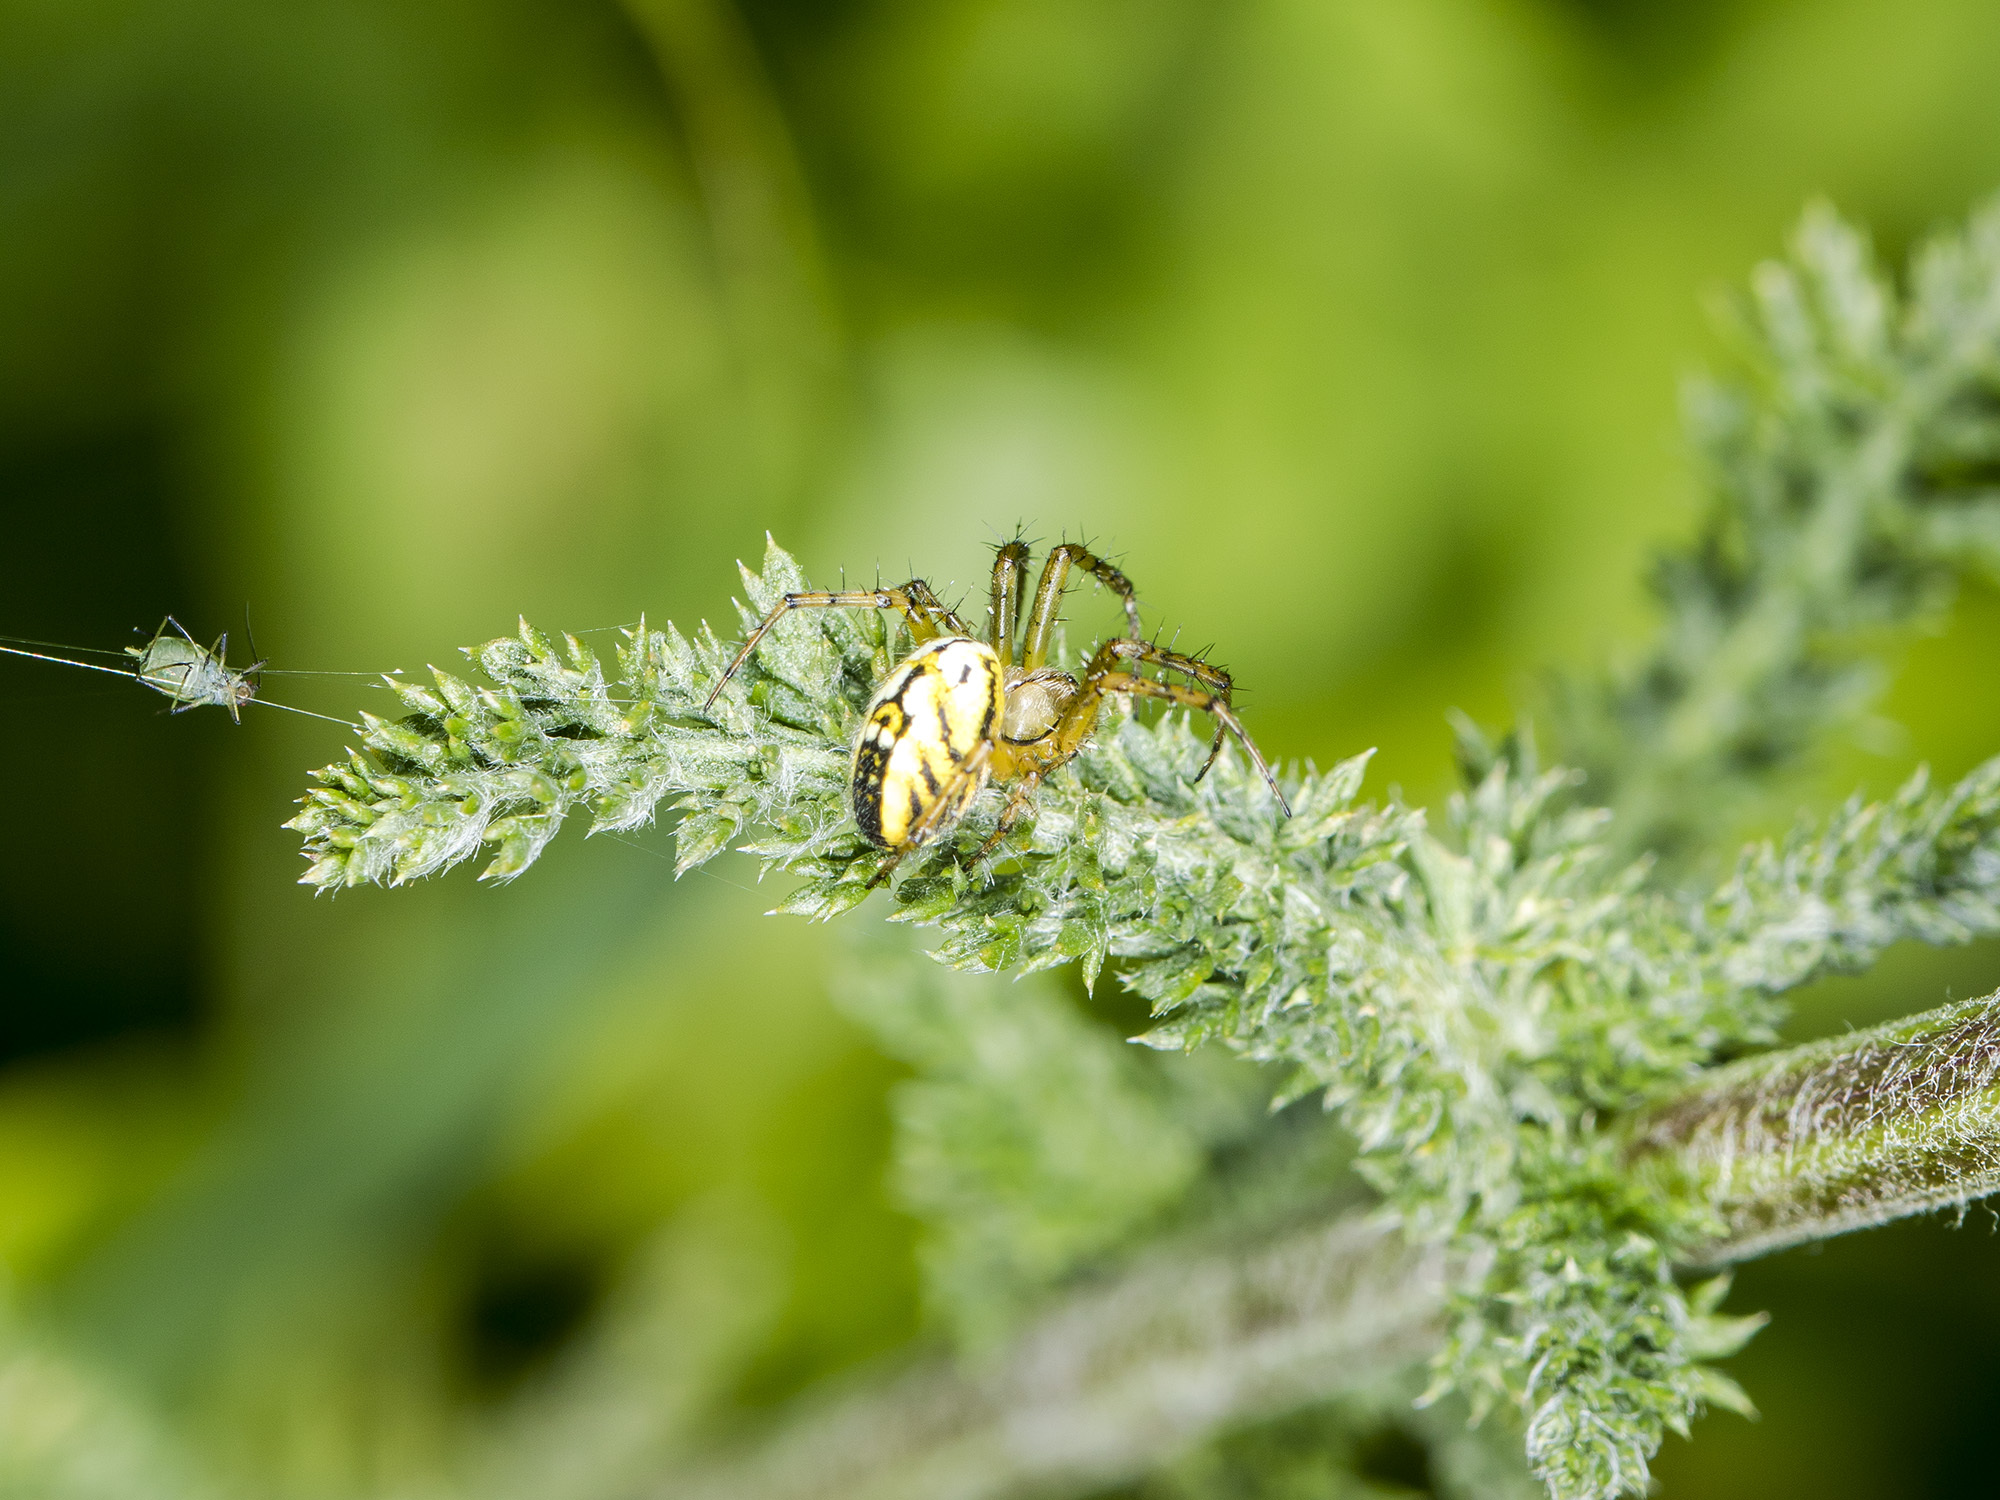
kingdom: Animalia
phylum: Arthropoda
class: Arachnida
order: Araneae
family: Araneidae
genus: Mangora
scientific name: Mangora acalypha
